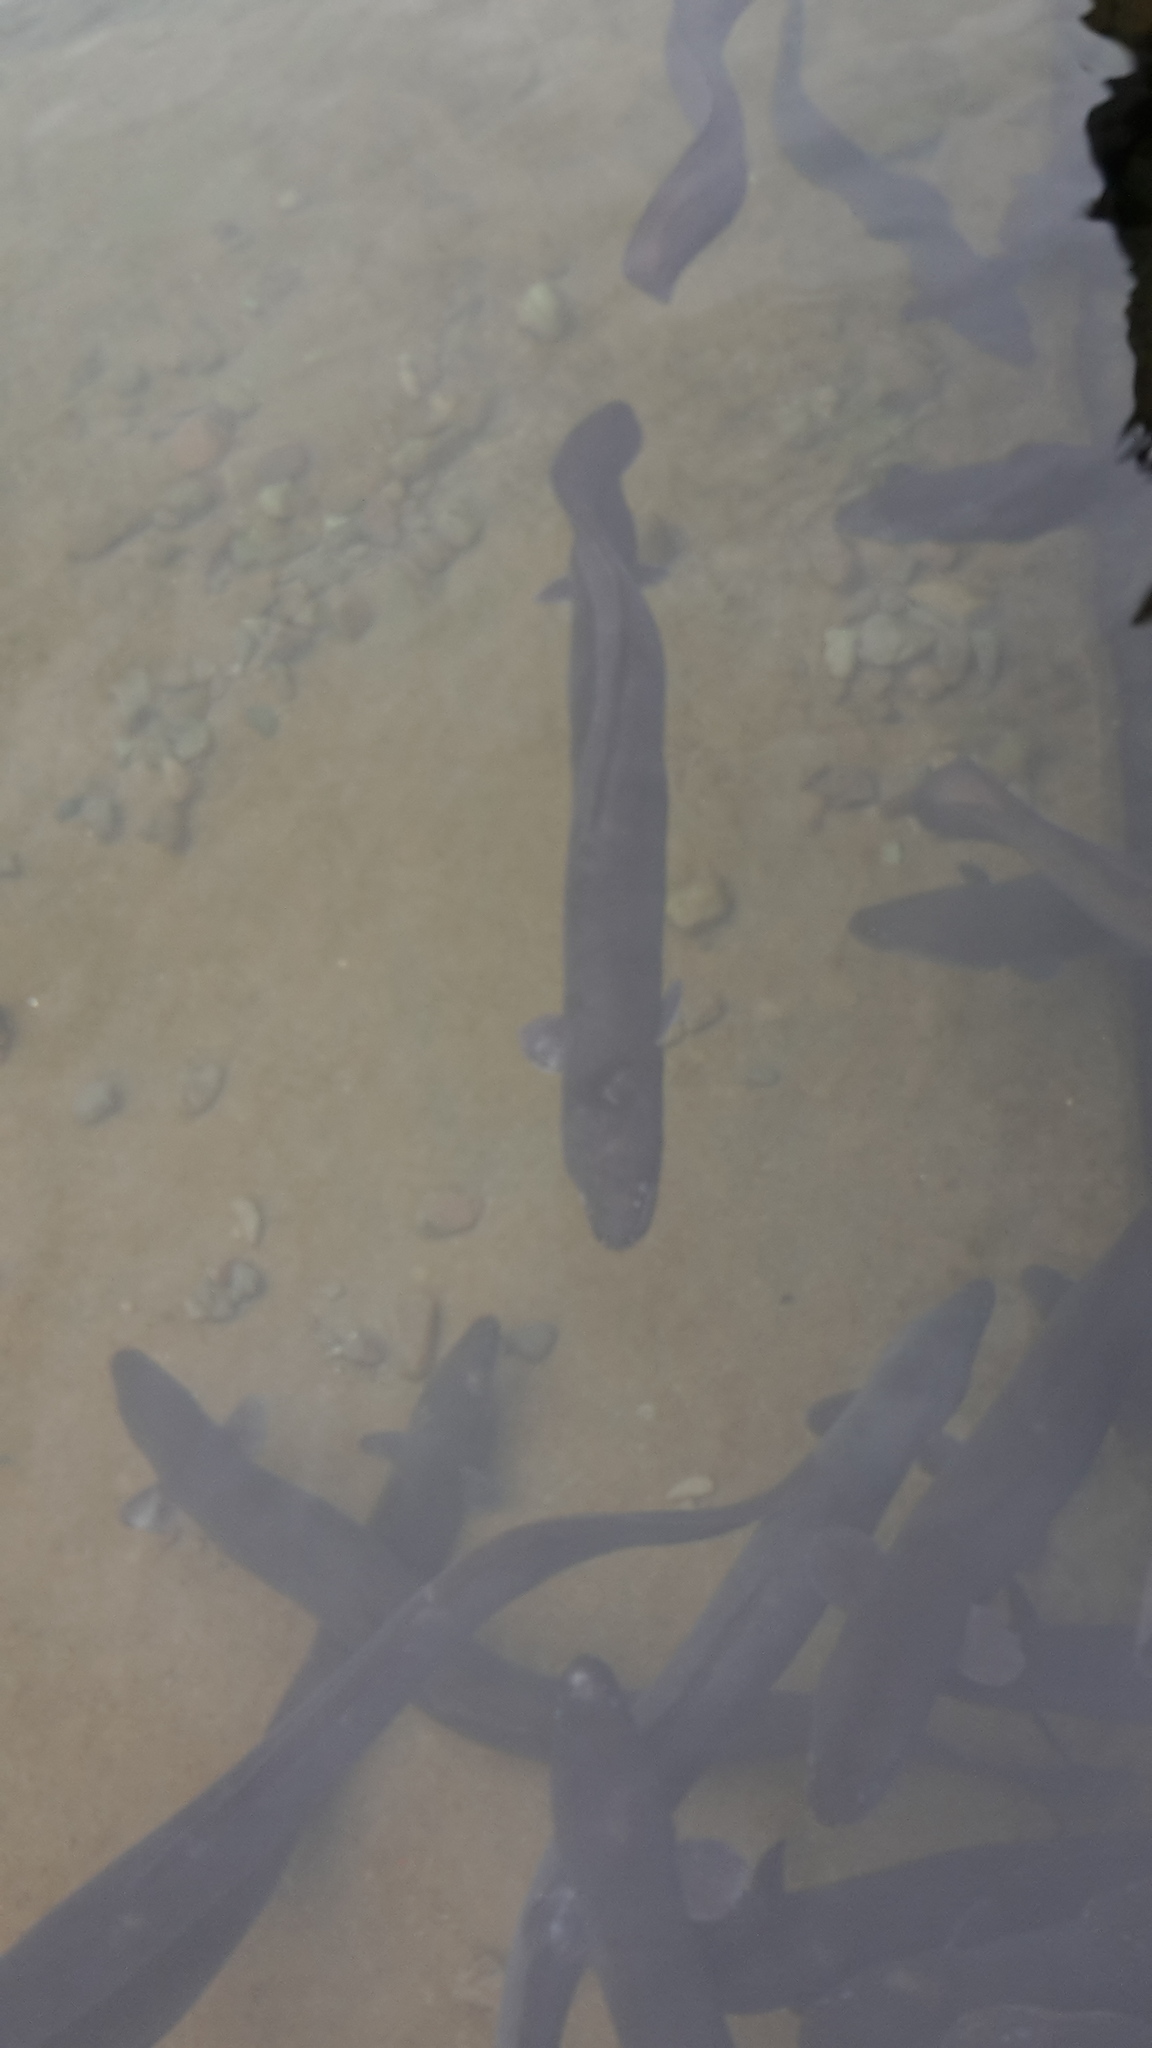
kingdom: Animalia
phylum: Chordata
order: Anguilliformes
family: Anguillidae
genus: Anguilla
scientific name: Anguilla dieffenbachii
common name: New zealand longfin eel
